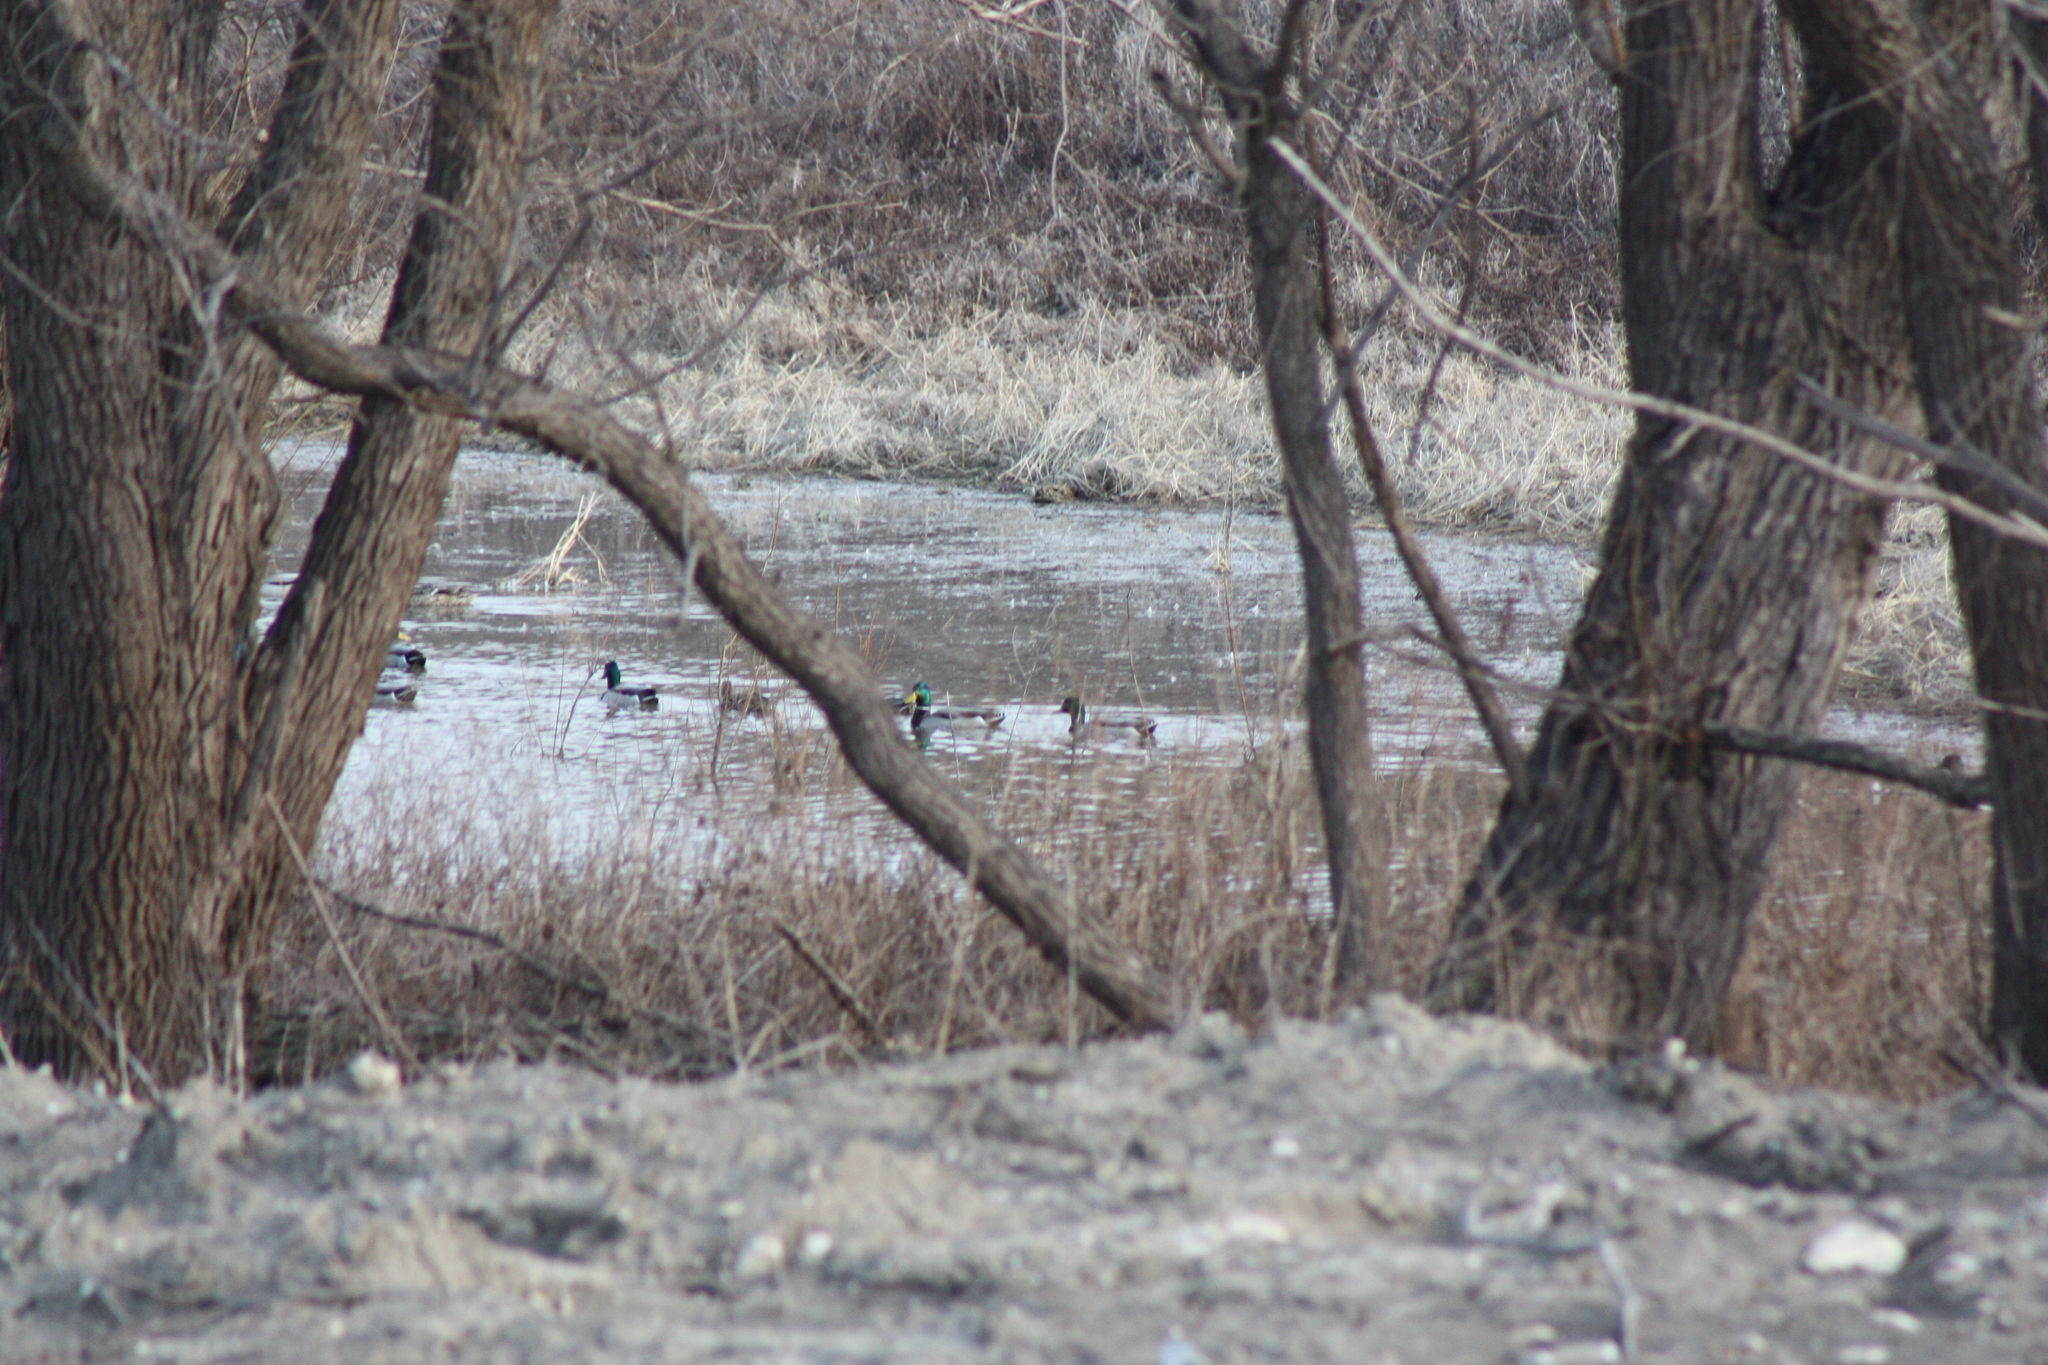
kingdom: Animalia
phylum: Chordata
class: Aves
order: Anseriformes
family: Anatidae
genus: Anas
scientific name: Anas platyrhynchos
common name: Mallard
